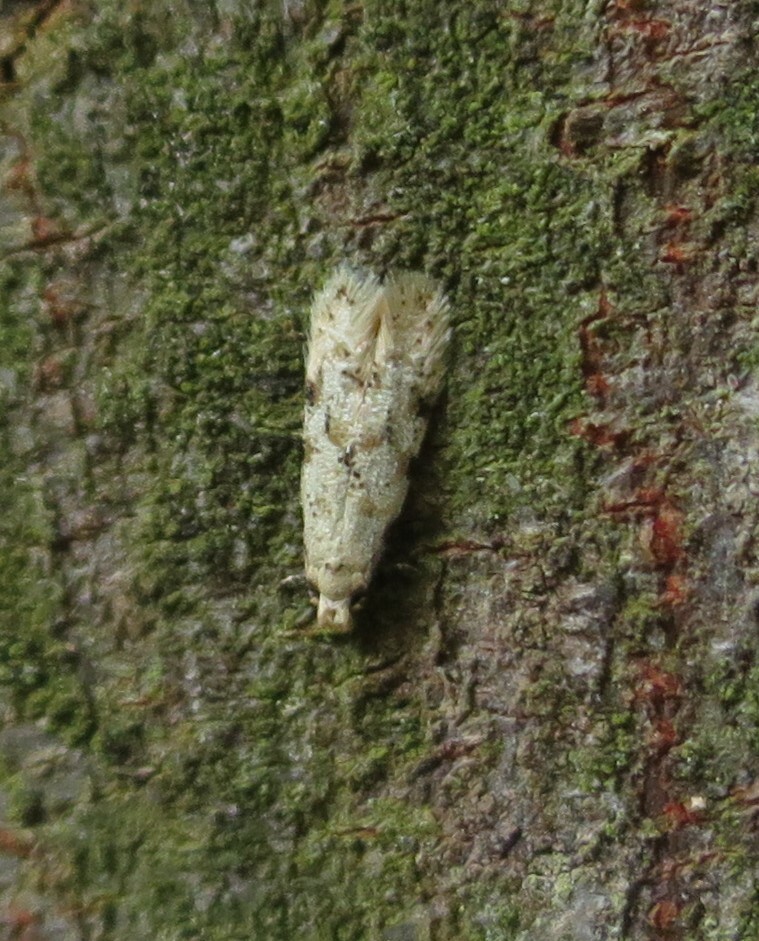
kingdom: Animalia
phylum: Arthropoda
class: Insecta
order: Lepidoptera
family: Tineidae
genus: Crypsitricha
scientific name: Crypsitricha stereota
